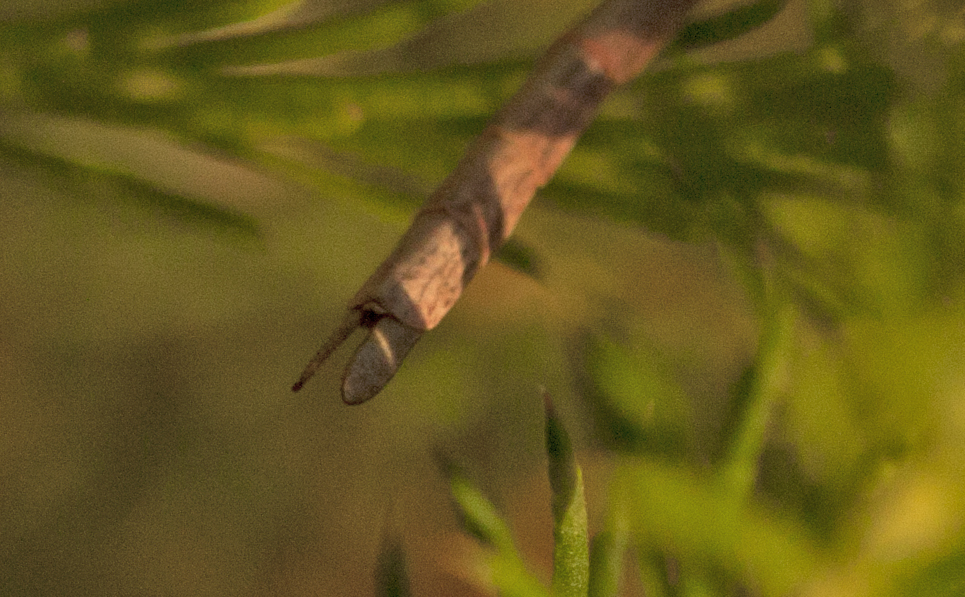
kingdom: Animalia
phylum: Arthropoda
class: Insecta
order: Phasmida
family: Phasmatidae
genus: Anchiale
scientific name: Anchiale austrotessulata
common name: Tessellated stick-insect
